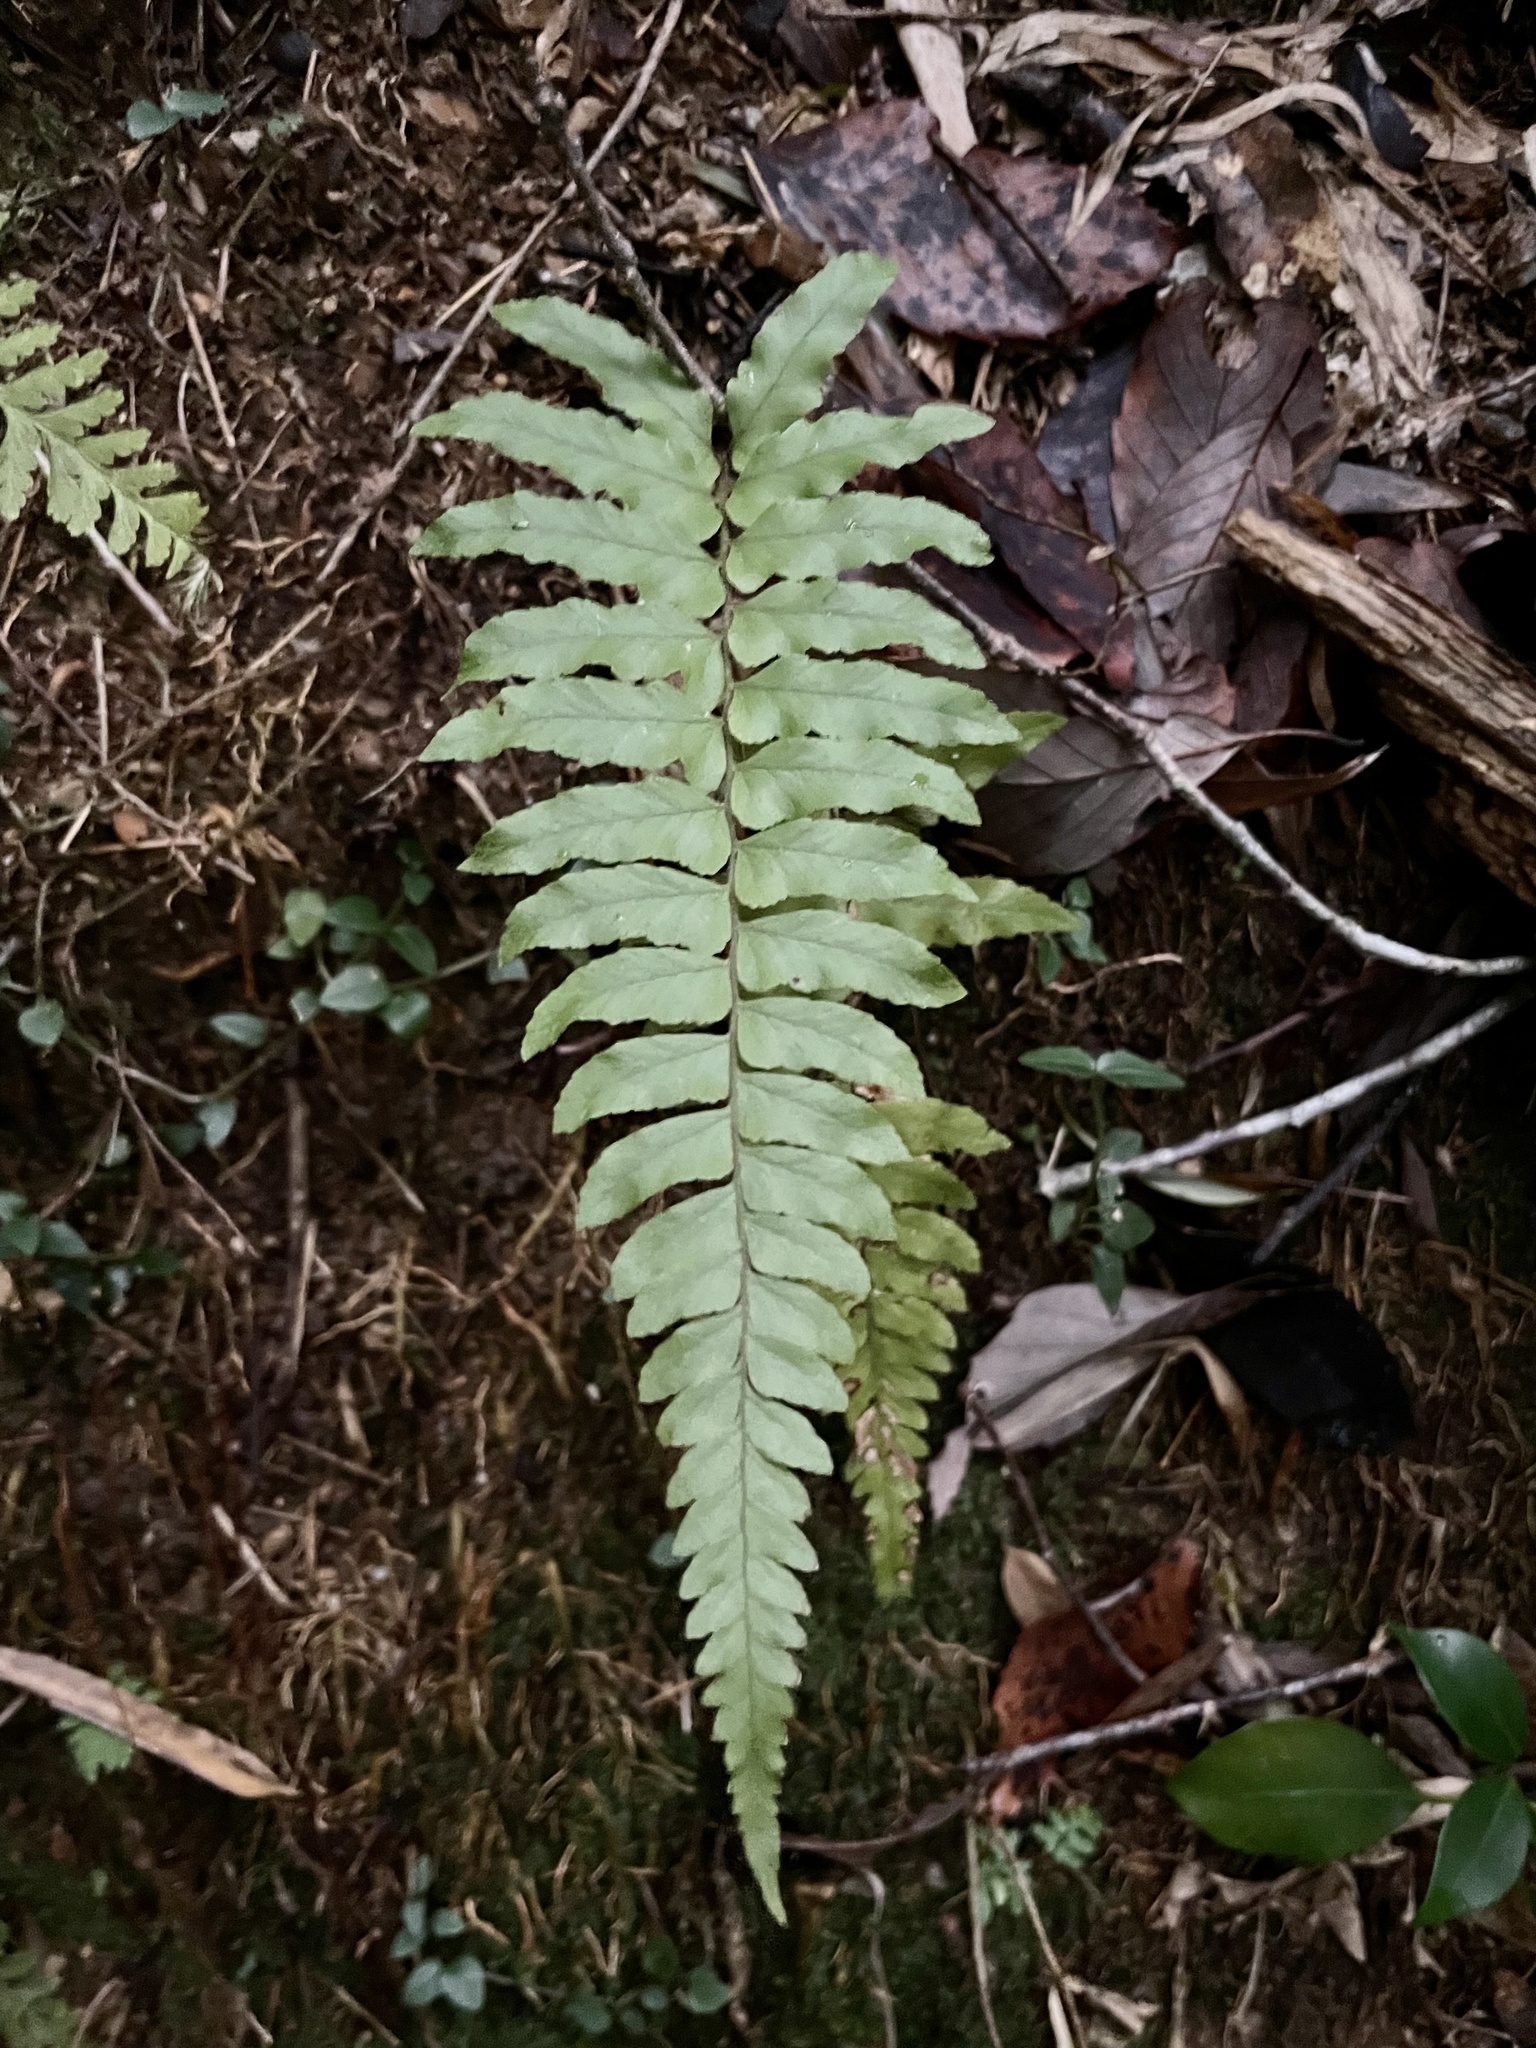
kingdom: Plantae
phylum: Tracheophyta
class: Polypodiopsida
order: Polypodiales
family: Dennstaedtiaceae
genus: Microlepia
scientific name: Microlepia marginata
